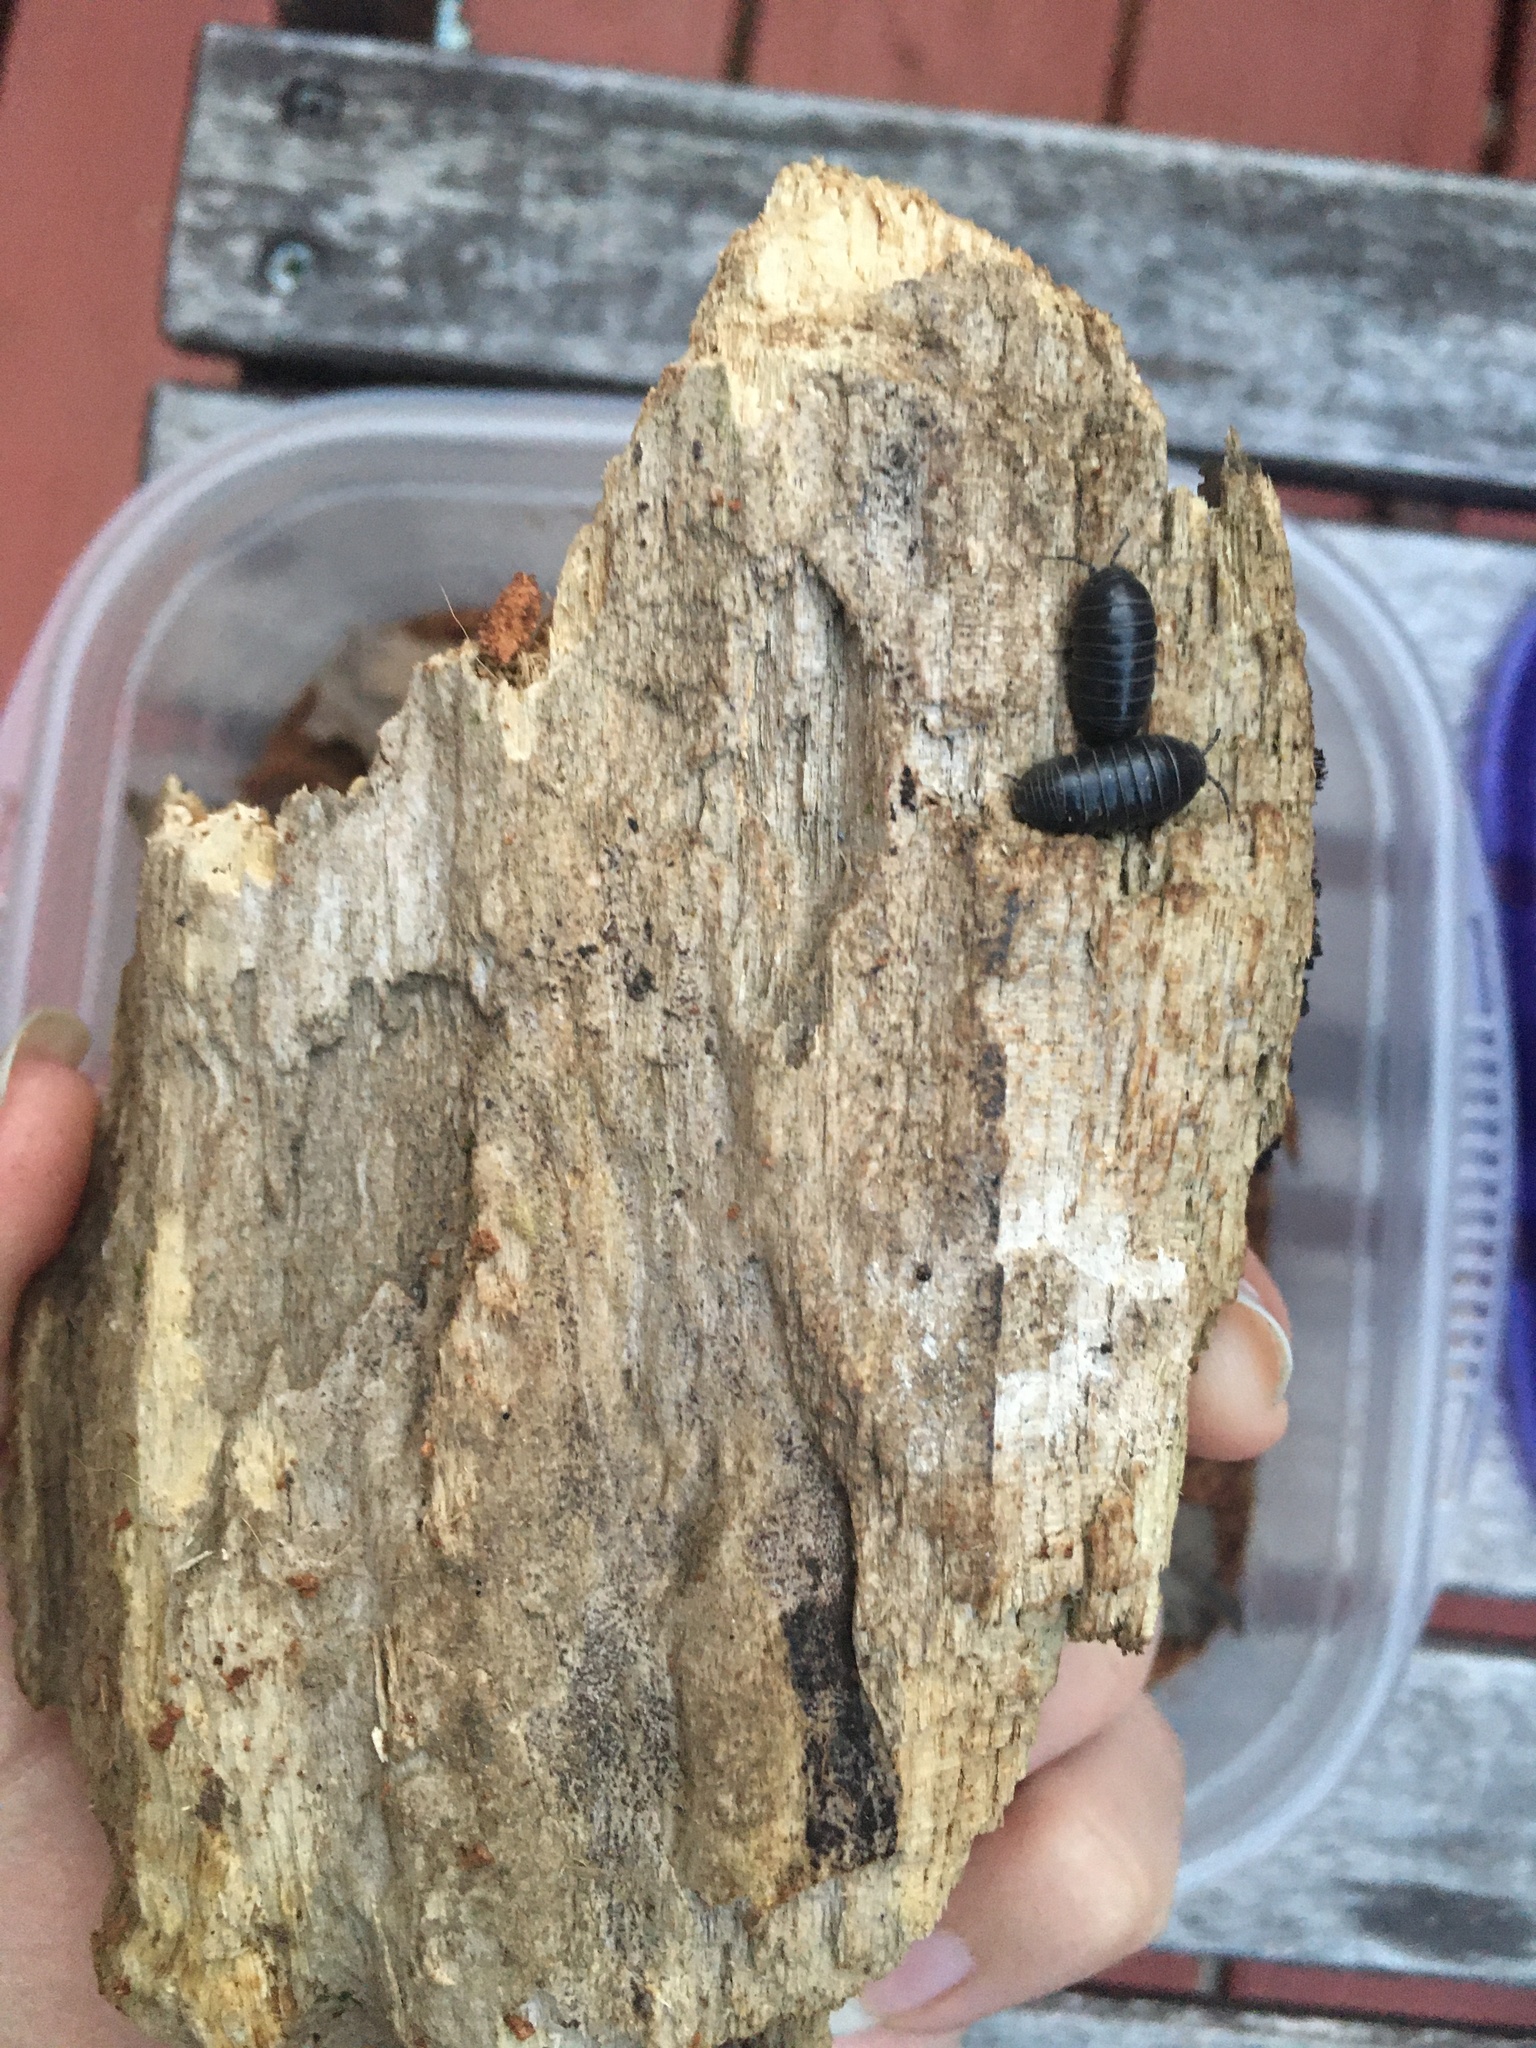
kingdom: Animalia
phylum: Arthropoda
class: Malacostraca
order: Isopoda
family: Armadillidiidae
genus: Armadillidium
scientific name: Armadillidium vulgare
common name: Common pill woodlouse
